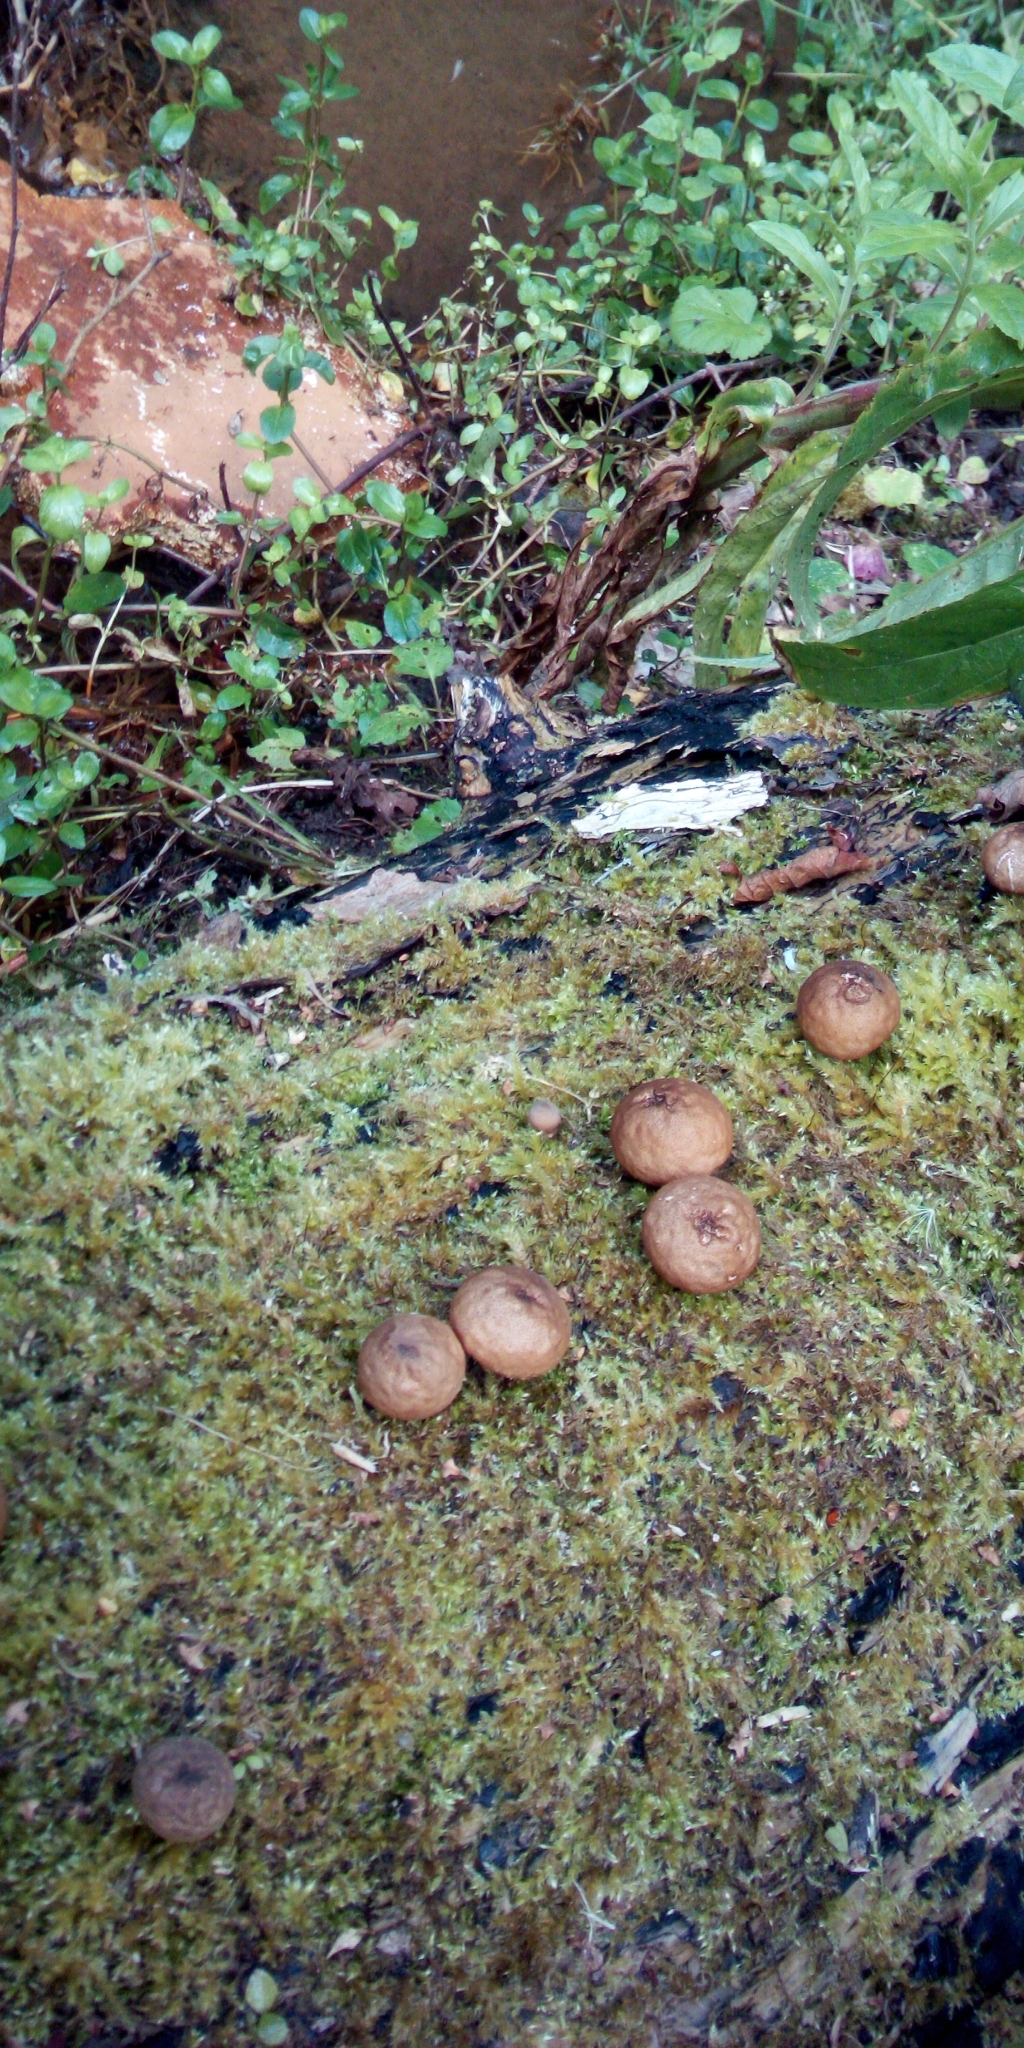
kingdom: Fungi
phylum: Basidiomycota
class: Agaricomycetes
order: Agaricales
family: Lycoperdaceae
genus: Apioperdon
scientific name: Apioperdon pyriforme
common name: Pear-shaped puffball
